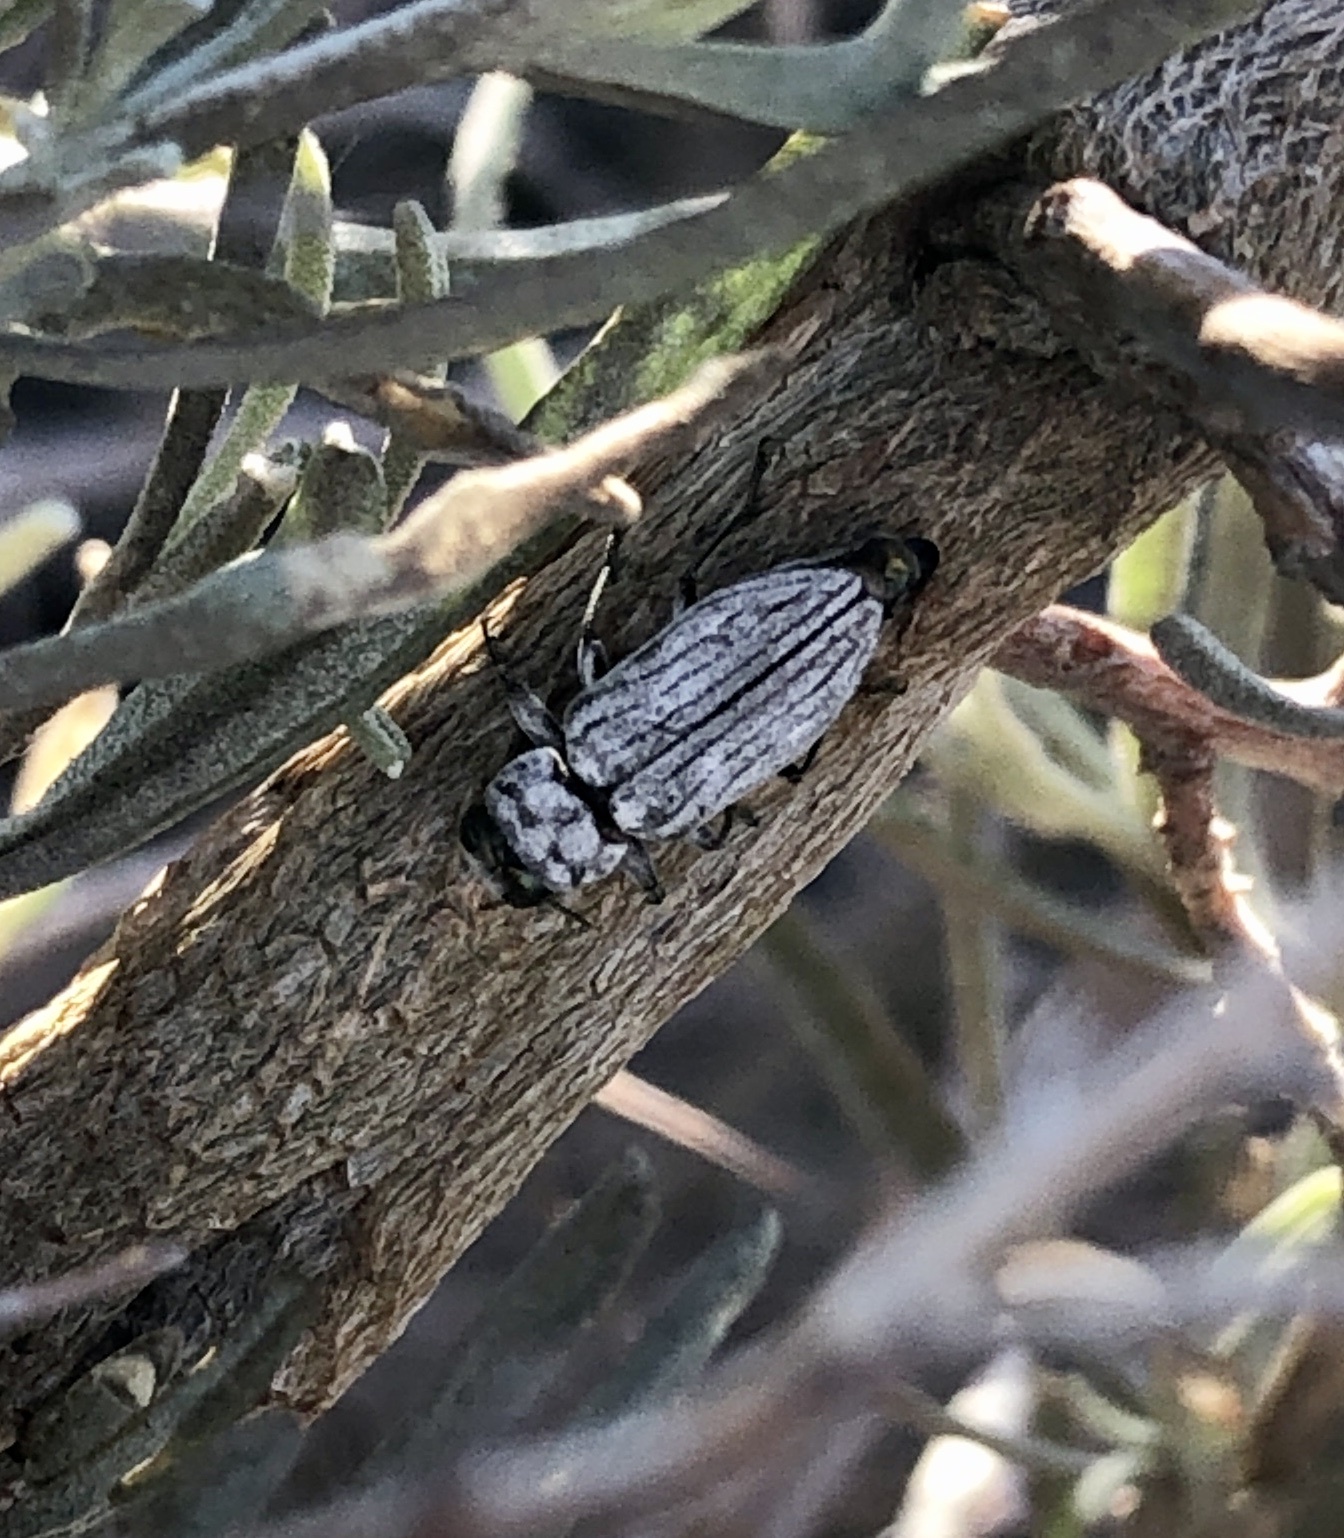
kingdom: Animalia
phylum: Arthropoda
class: Insecta
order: Coleoptera
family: Buprestidae
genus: Chrysobothris
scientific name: Chrysobothris deserta
